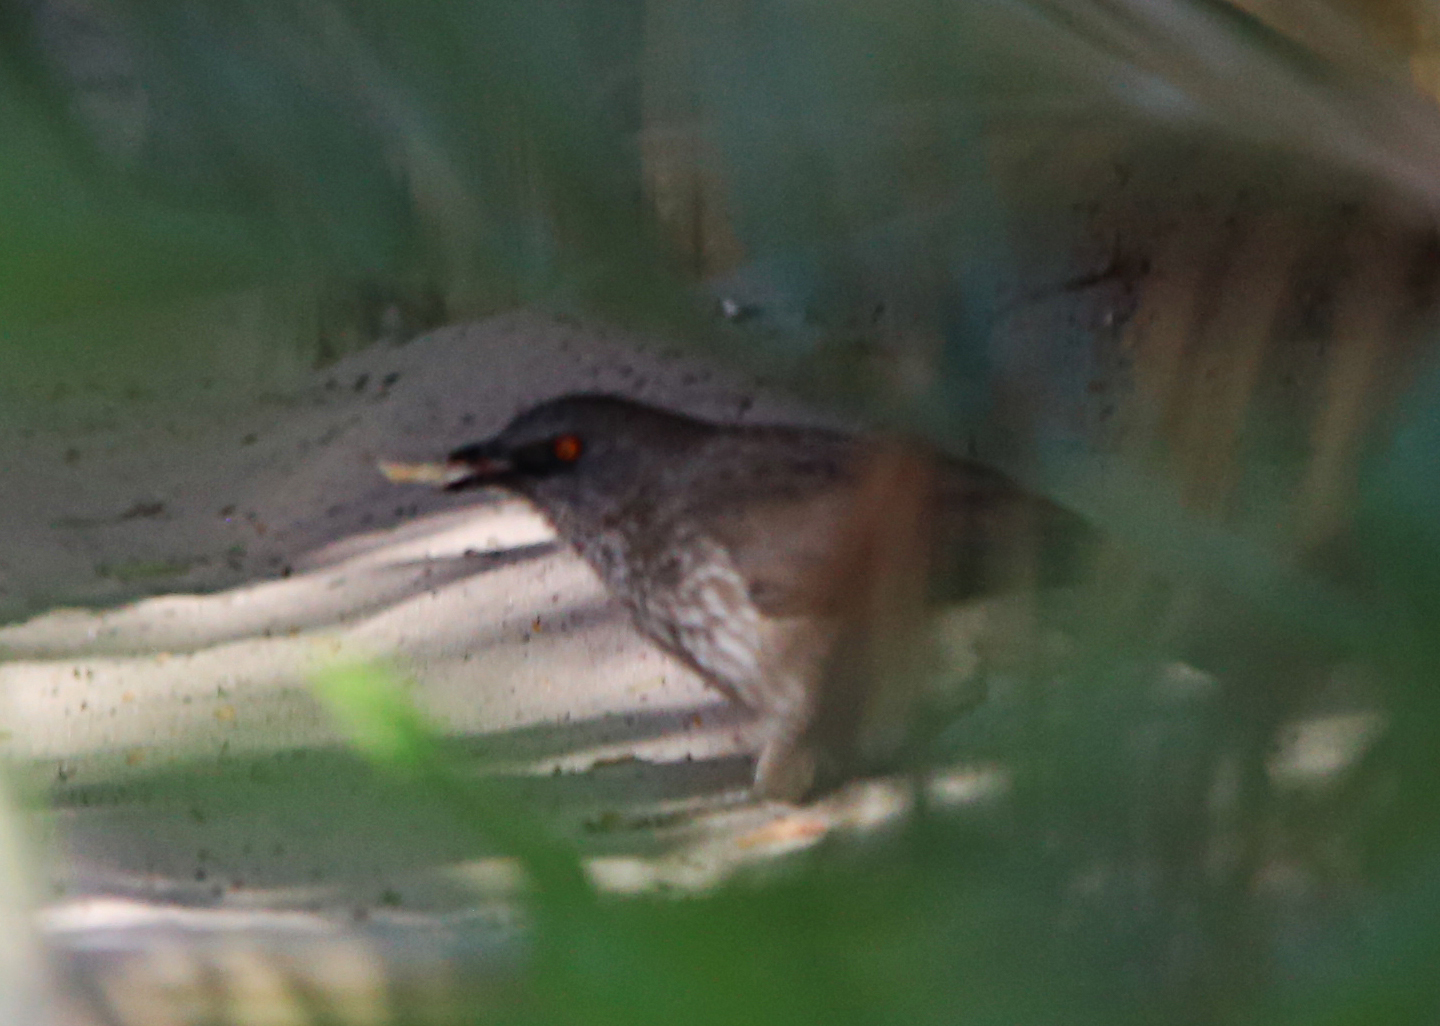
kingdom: Animalia
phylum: Chordata
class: Aves
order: Passeriformes
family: Leiothrichidae
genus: Turdoides
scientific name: Turdoides jardineii
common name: Arrow-marked babbler
